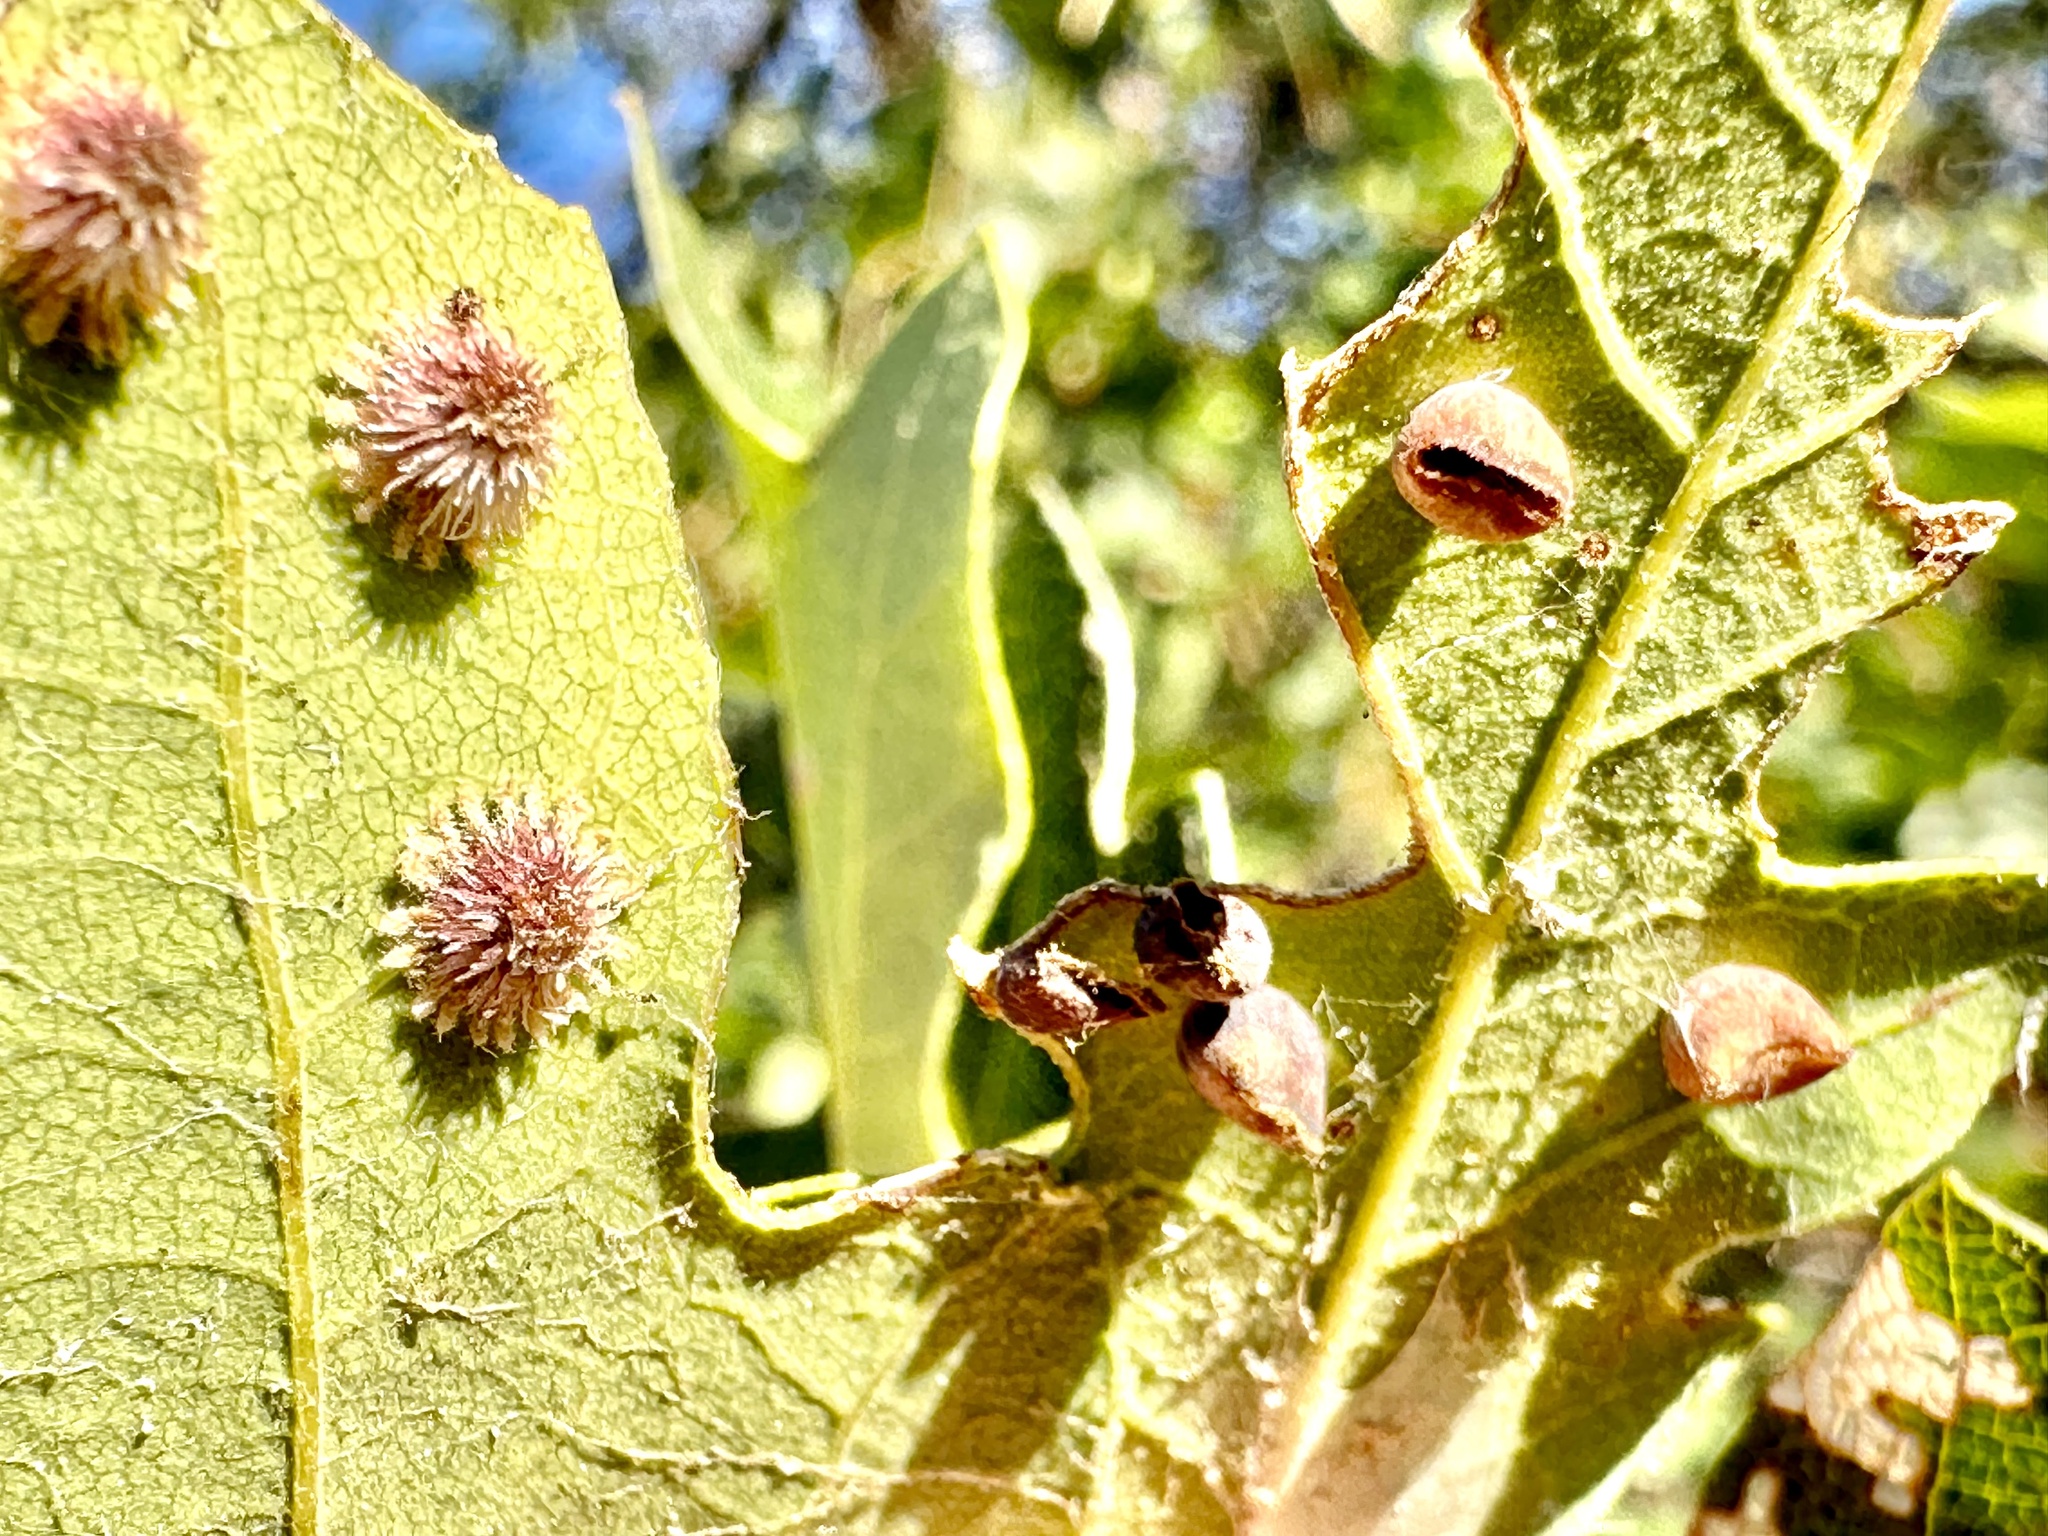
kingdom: Animalia
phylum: Arthropoda
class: Insecta
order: Hymenoptera
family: Cynipidae
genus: Andricus
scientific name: Andricus
